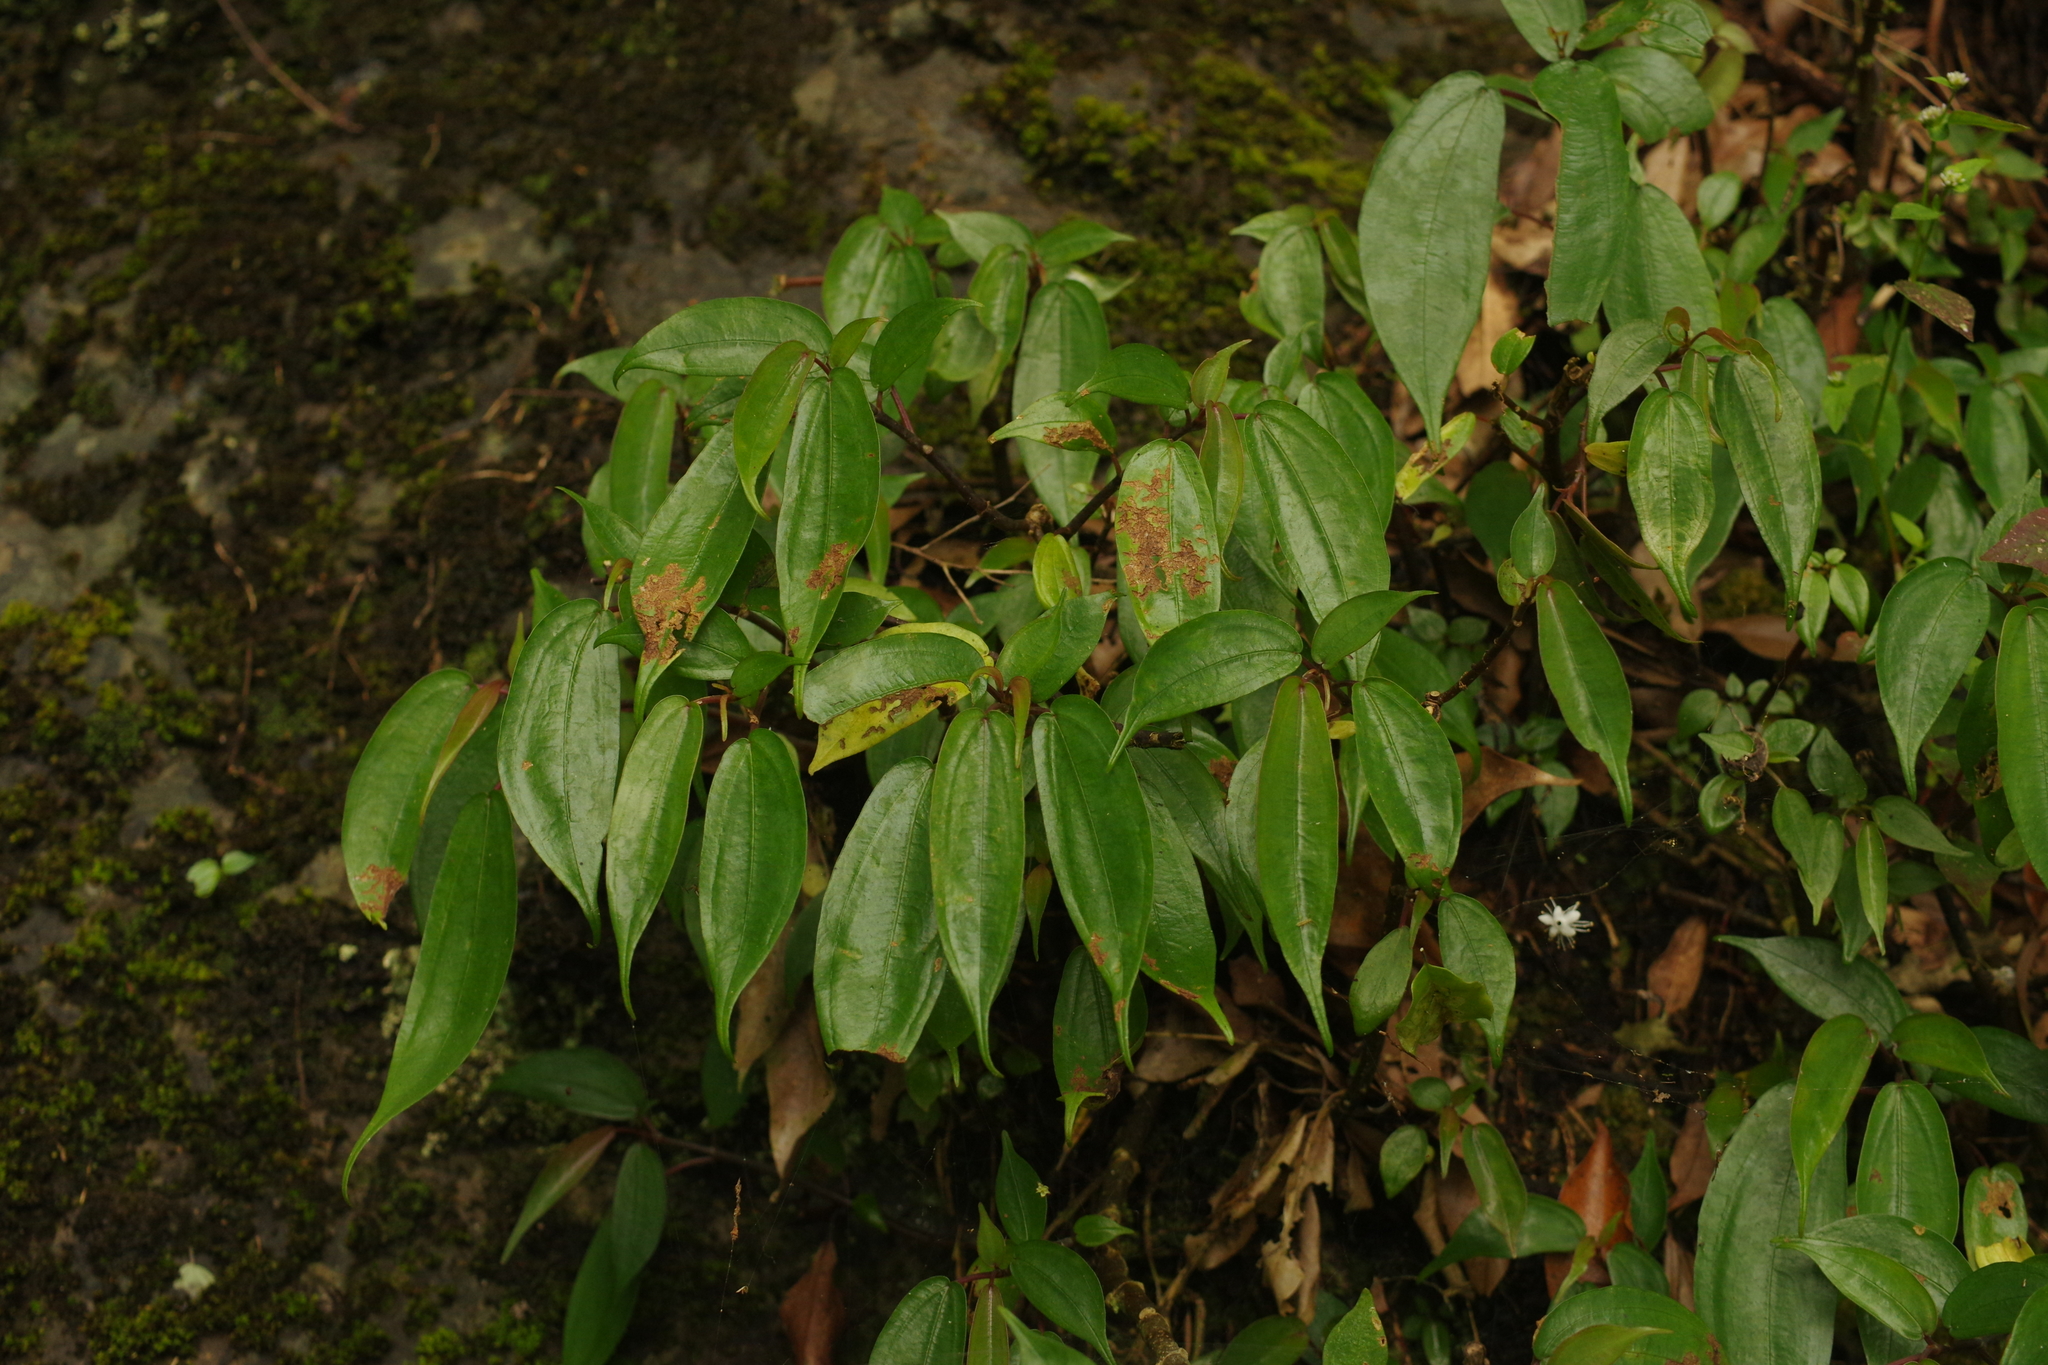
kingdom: Plantae
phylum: Tracheophyta
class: Magnoliopsida
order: Rosales
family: Urticaceae
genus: Pilea
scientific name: Pilea plataniflora
